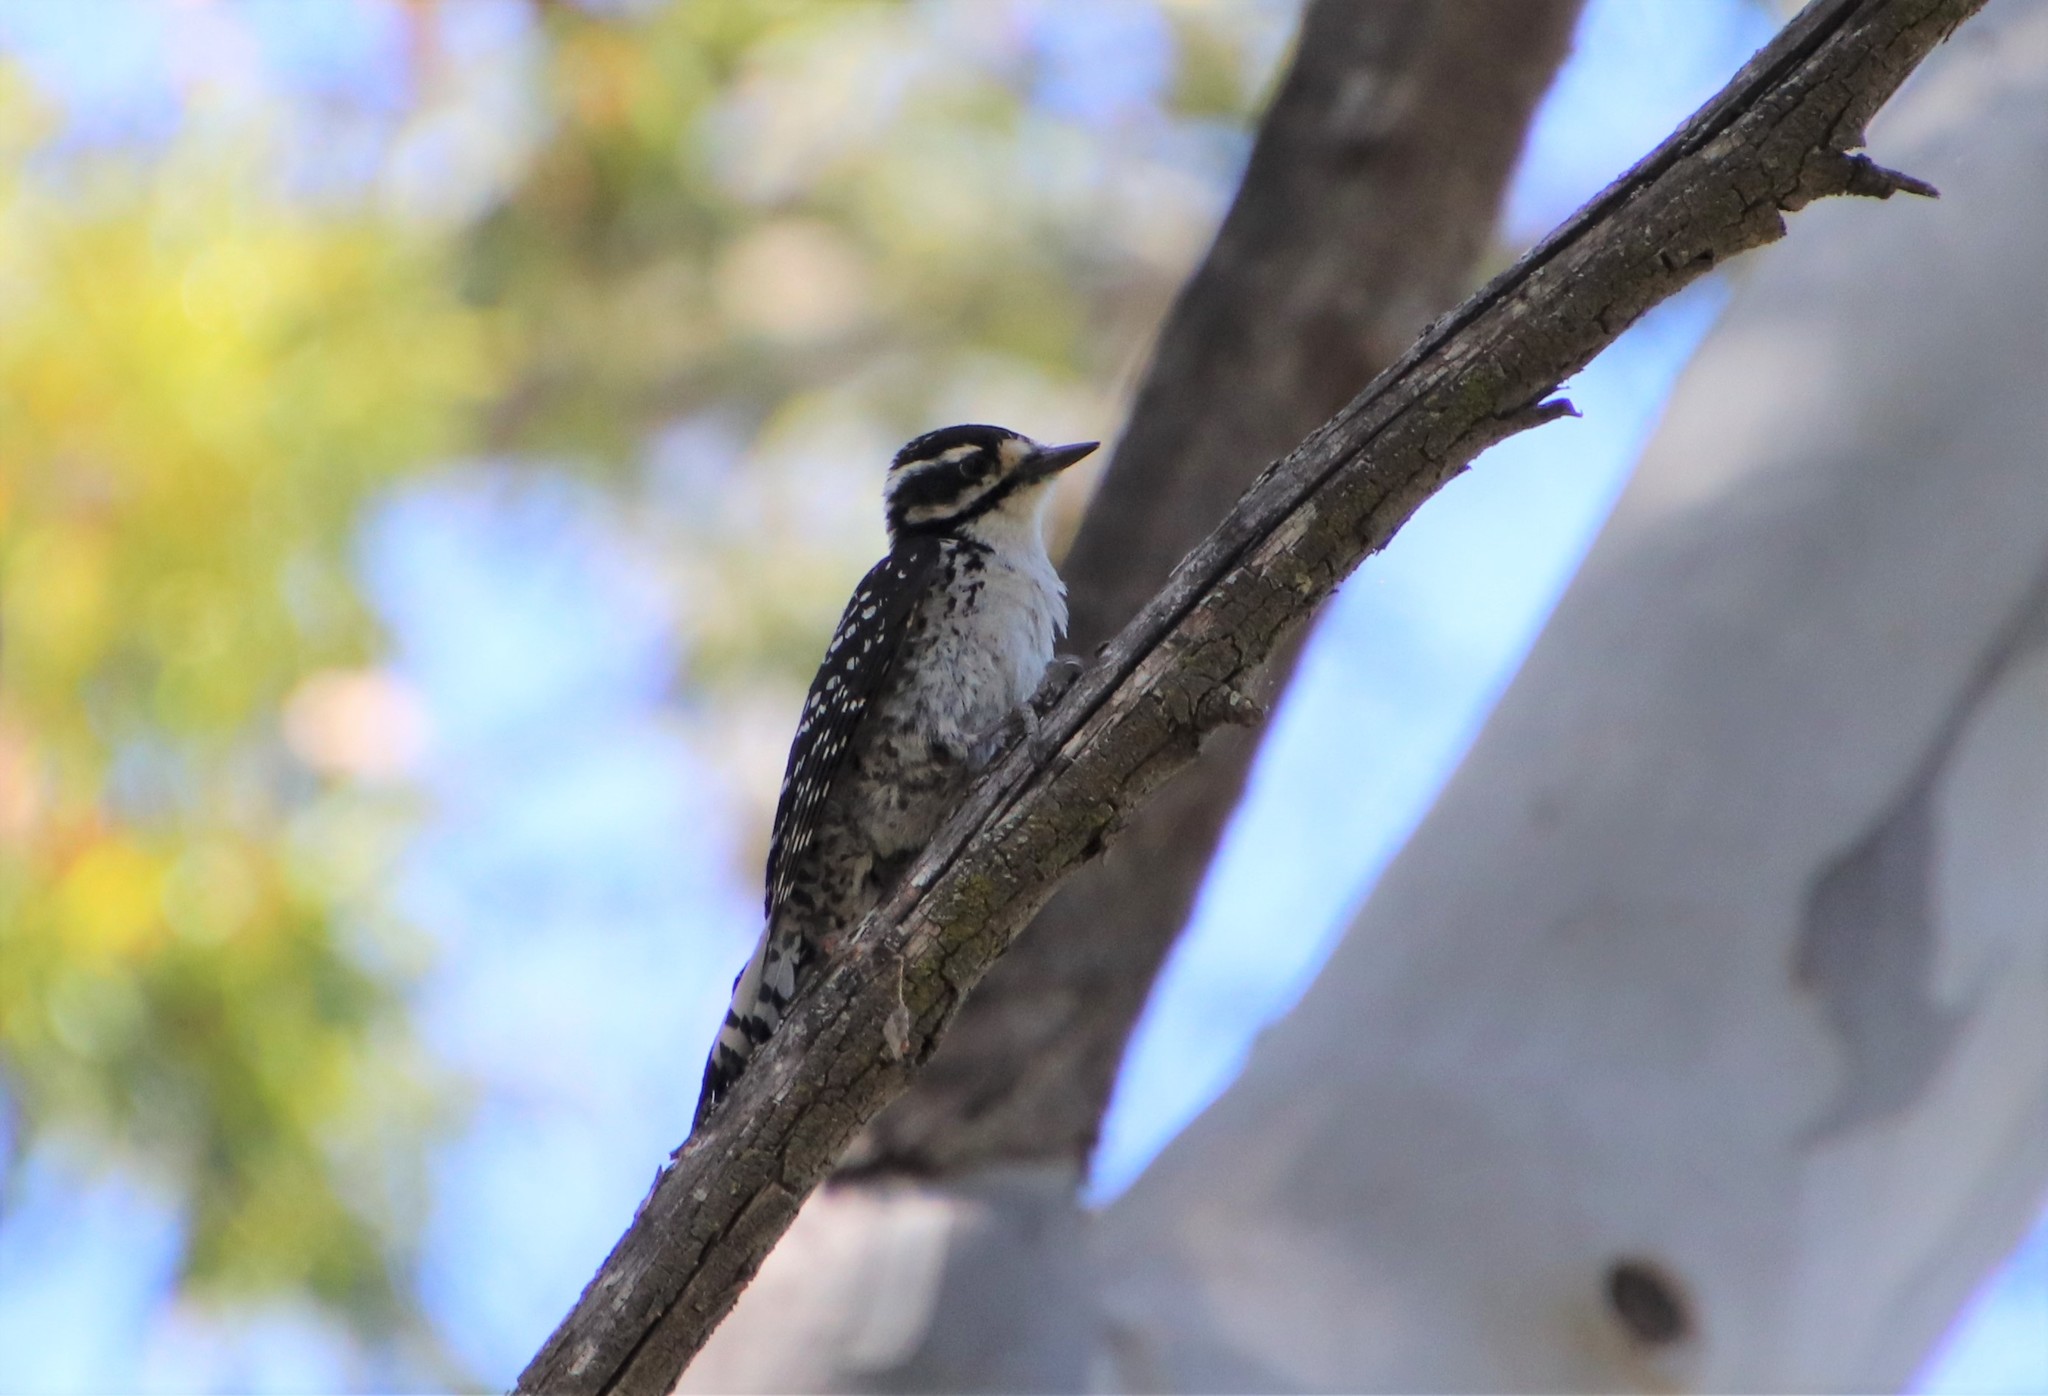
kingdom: Animalia
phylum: Chordata
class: Aves
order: Piciformes
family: Picidae
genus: Dryobates
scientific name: Dryobates nuttallii
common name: Nuttall's woodpecker
